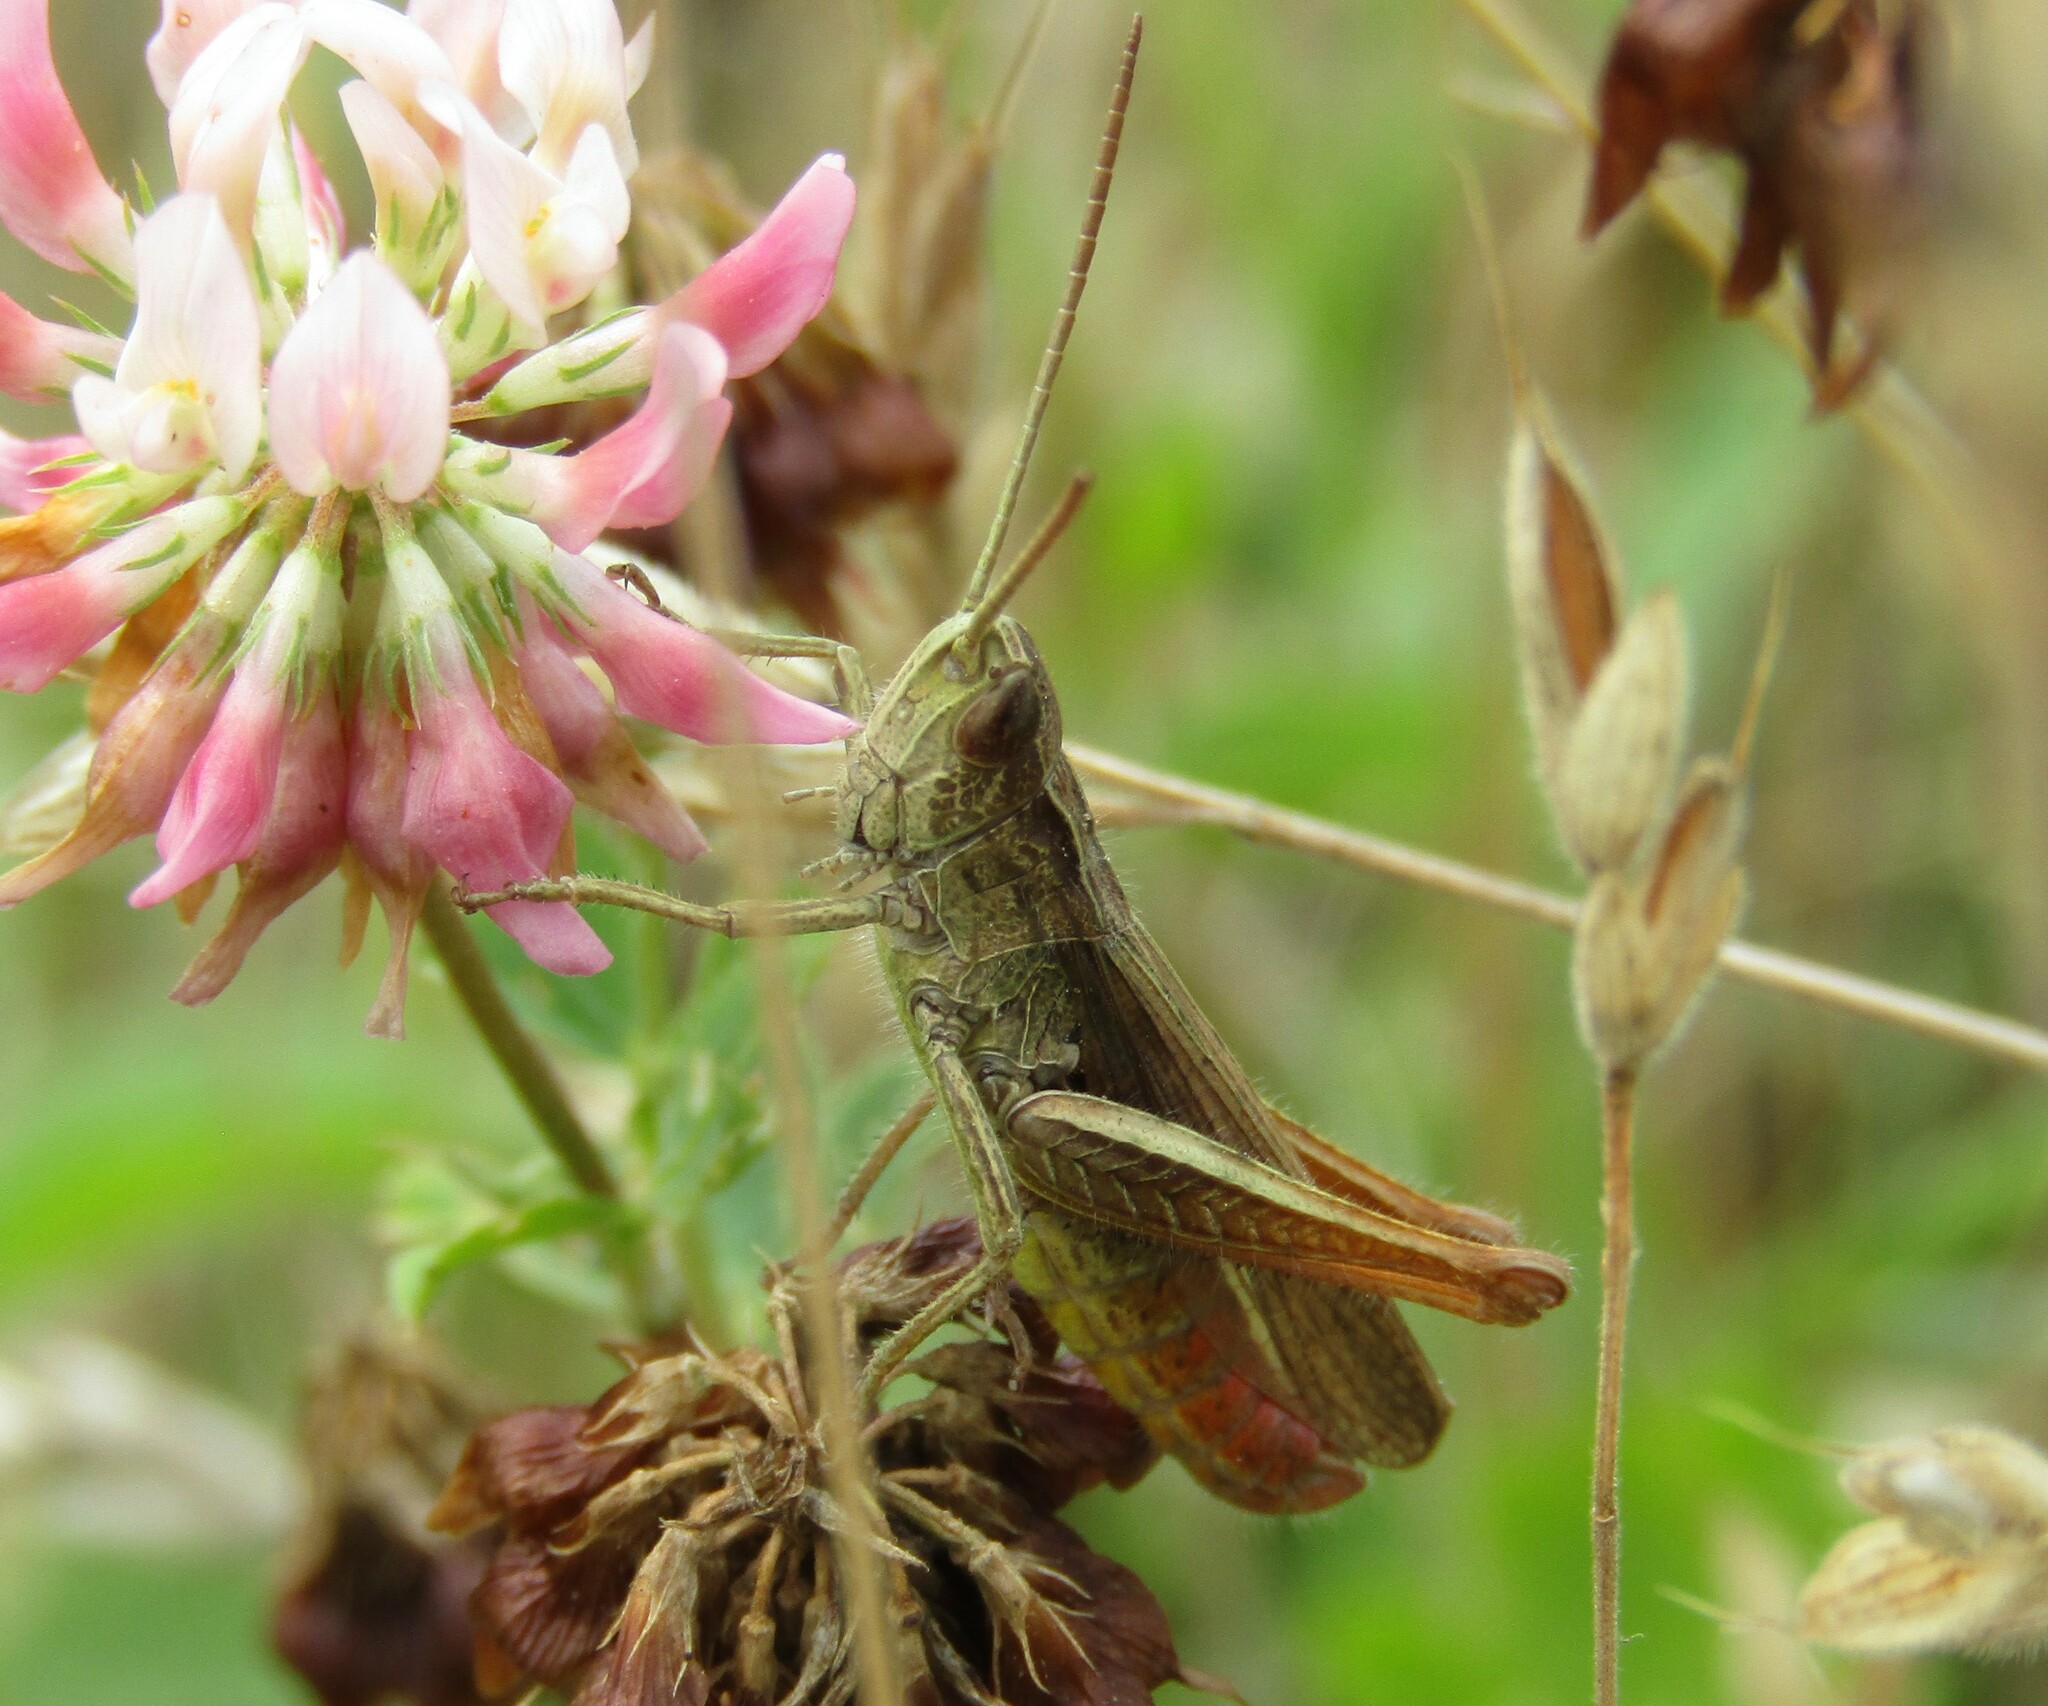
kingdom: Animalia
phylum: Arthropoda
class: Insecta
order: Orthoptera
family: Acrididae
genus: Chorthippus
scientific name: Chorthippus dorsatus
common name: Steppe grasshopper
